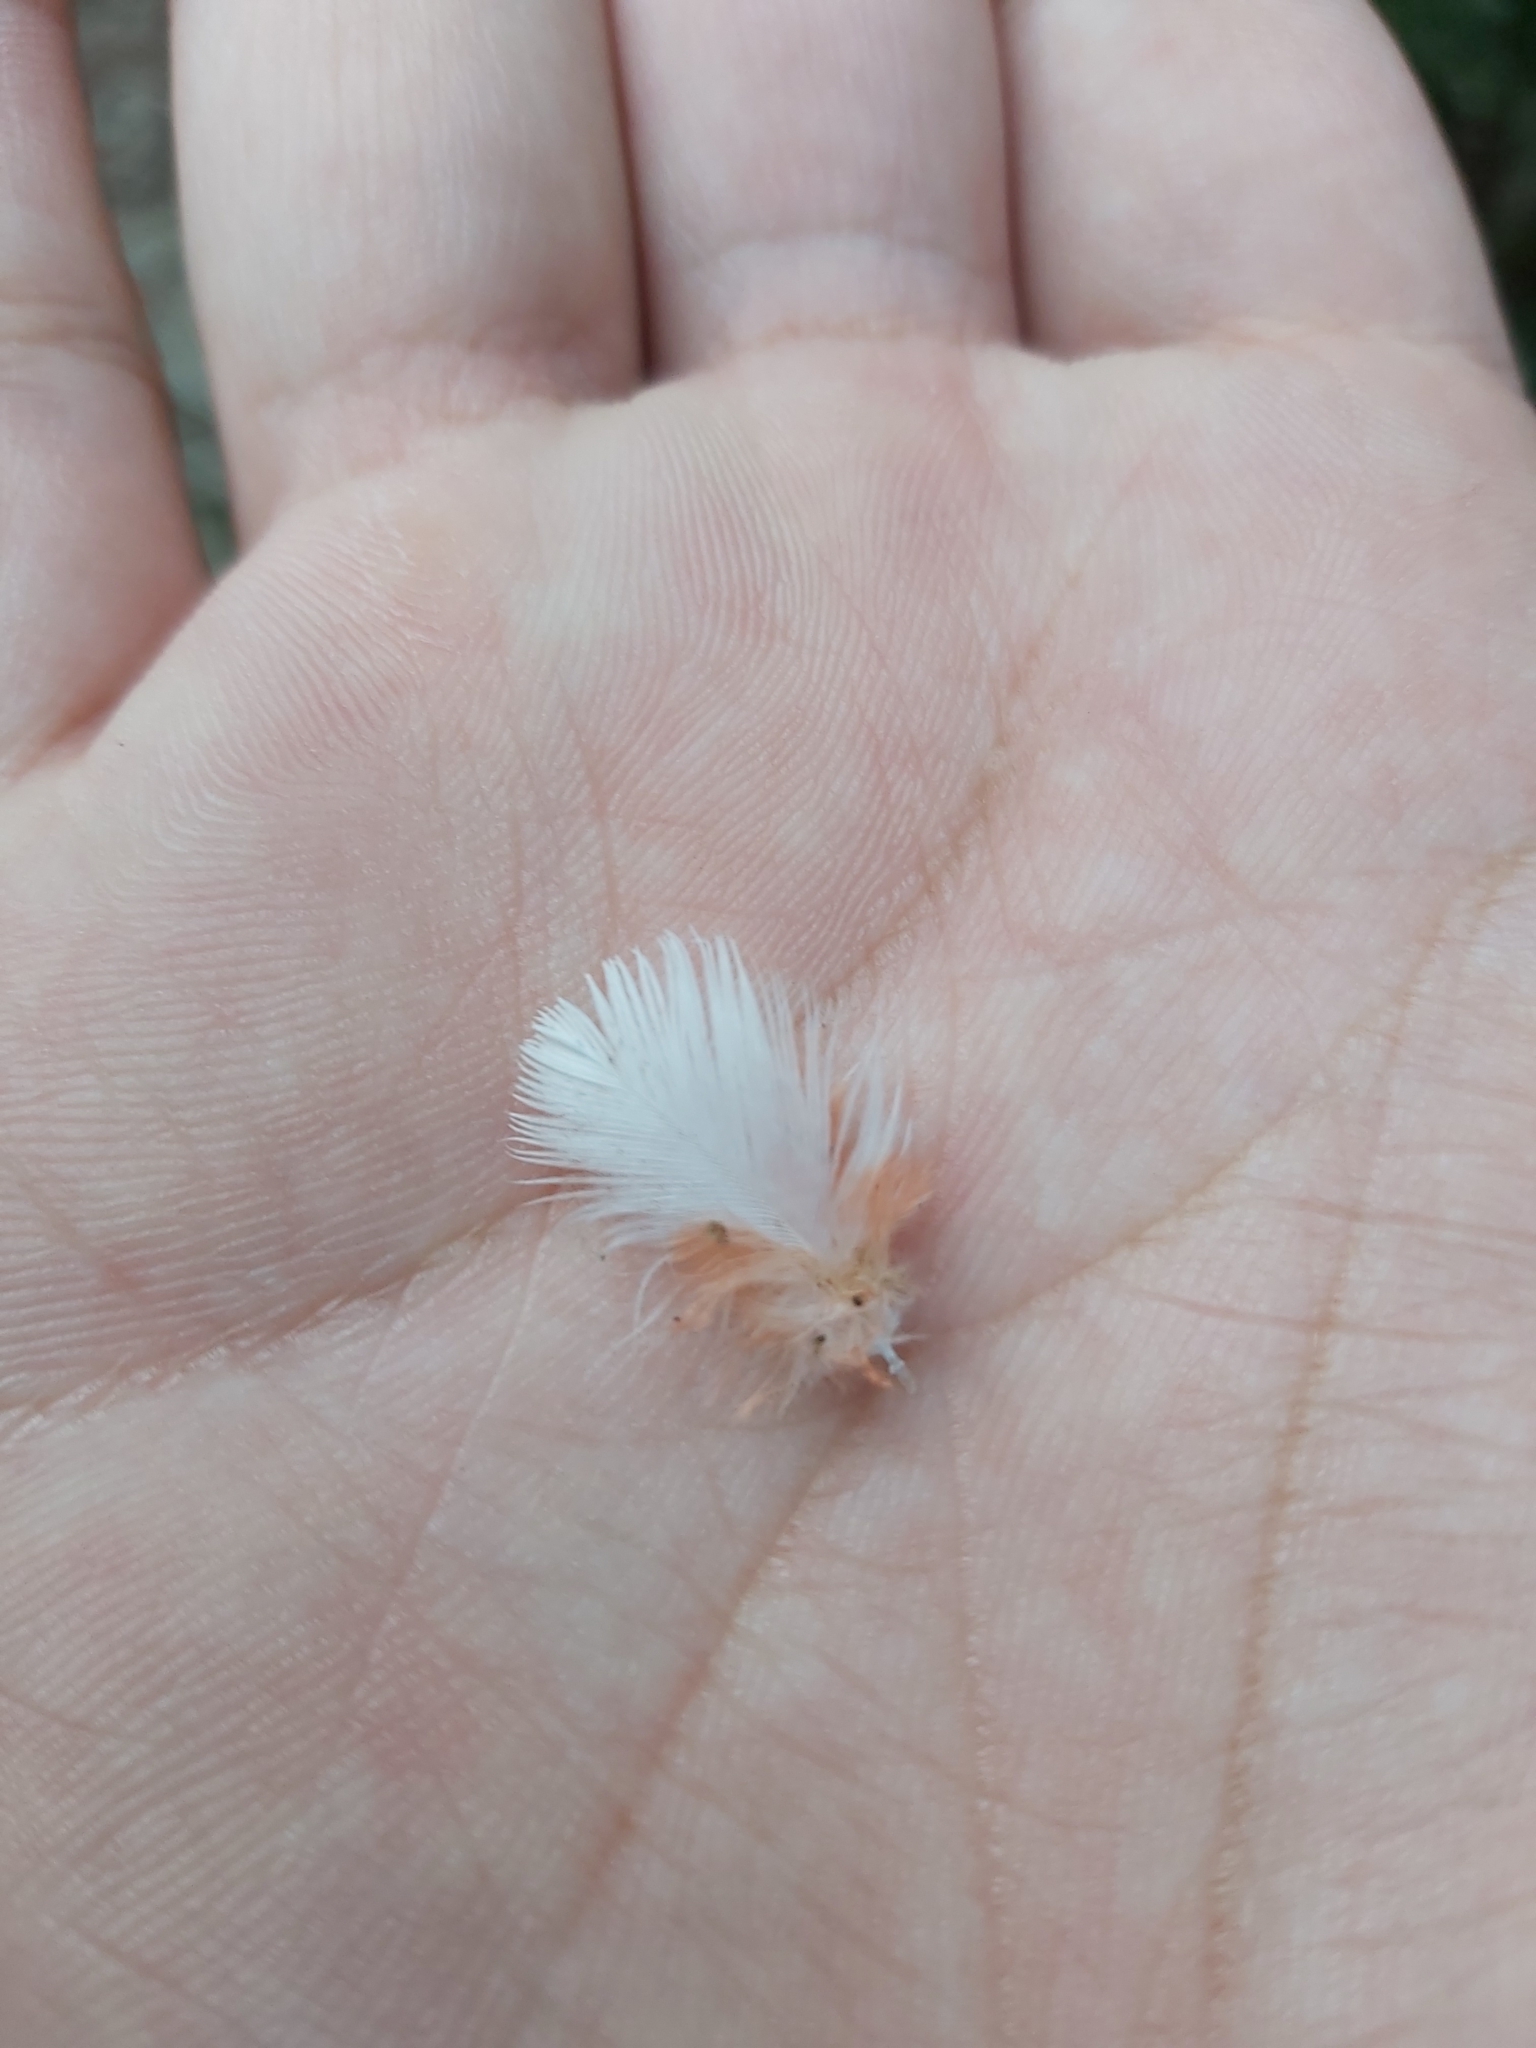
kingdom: Animalia
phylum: Chordata
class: Aves
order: Psittaciformes
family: Psittacidae
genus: Eolophus
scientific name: Eolophus roseicapilla
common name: Galah
